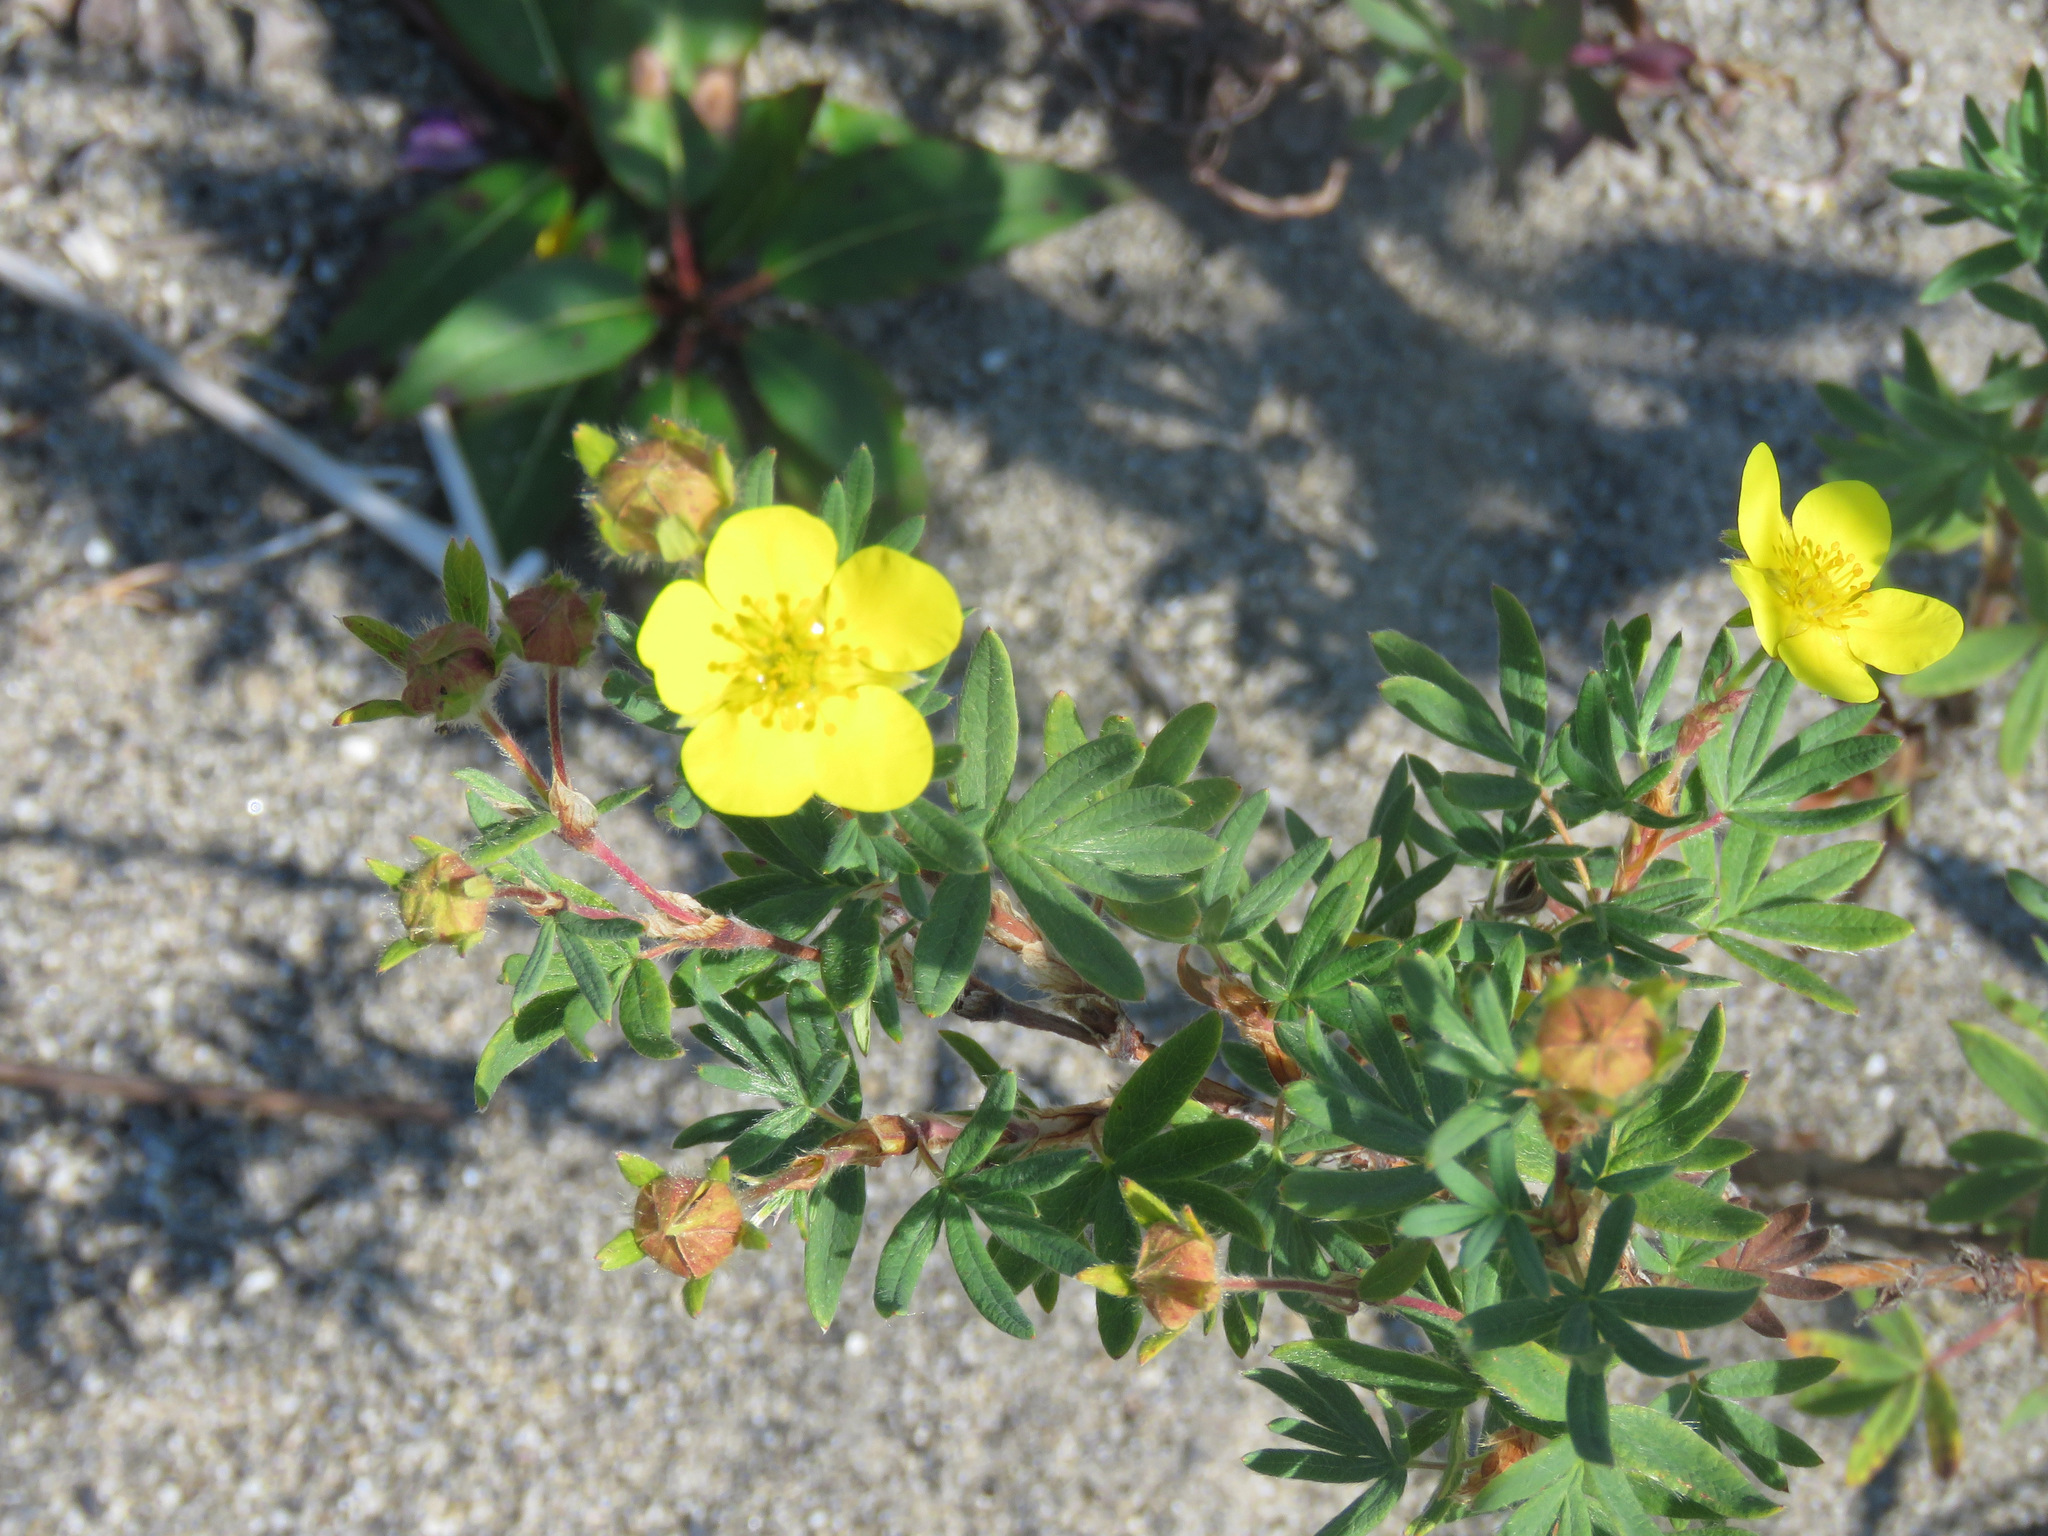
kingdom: Plantae
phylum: Tracheophyta
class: Magnoliopsida
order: Rosales
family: Rosaceae
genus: Dasiphora
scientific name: Dasiphora fruticosa
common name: Shrubby cinquefoil
